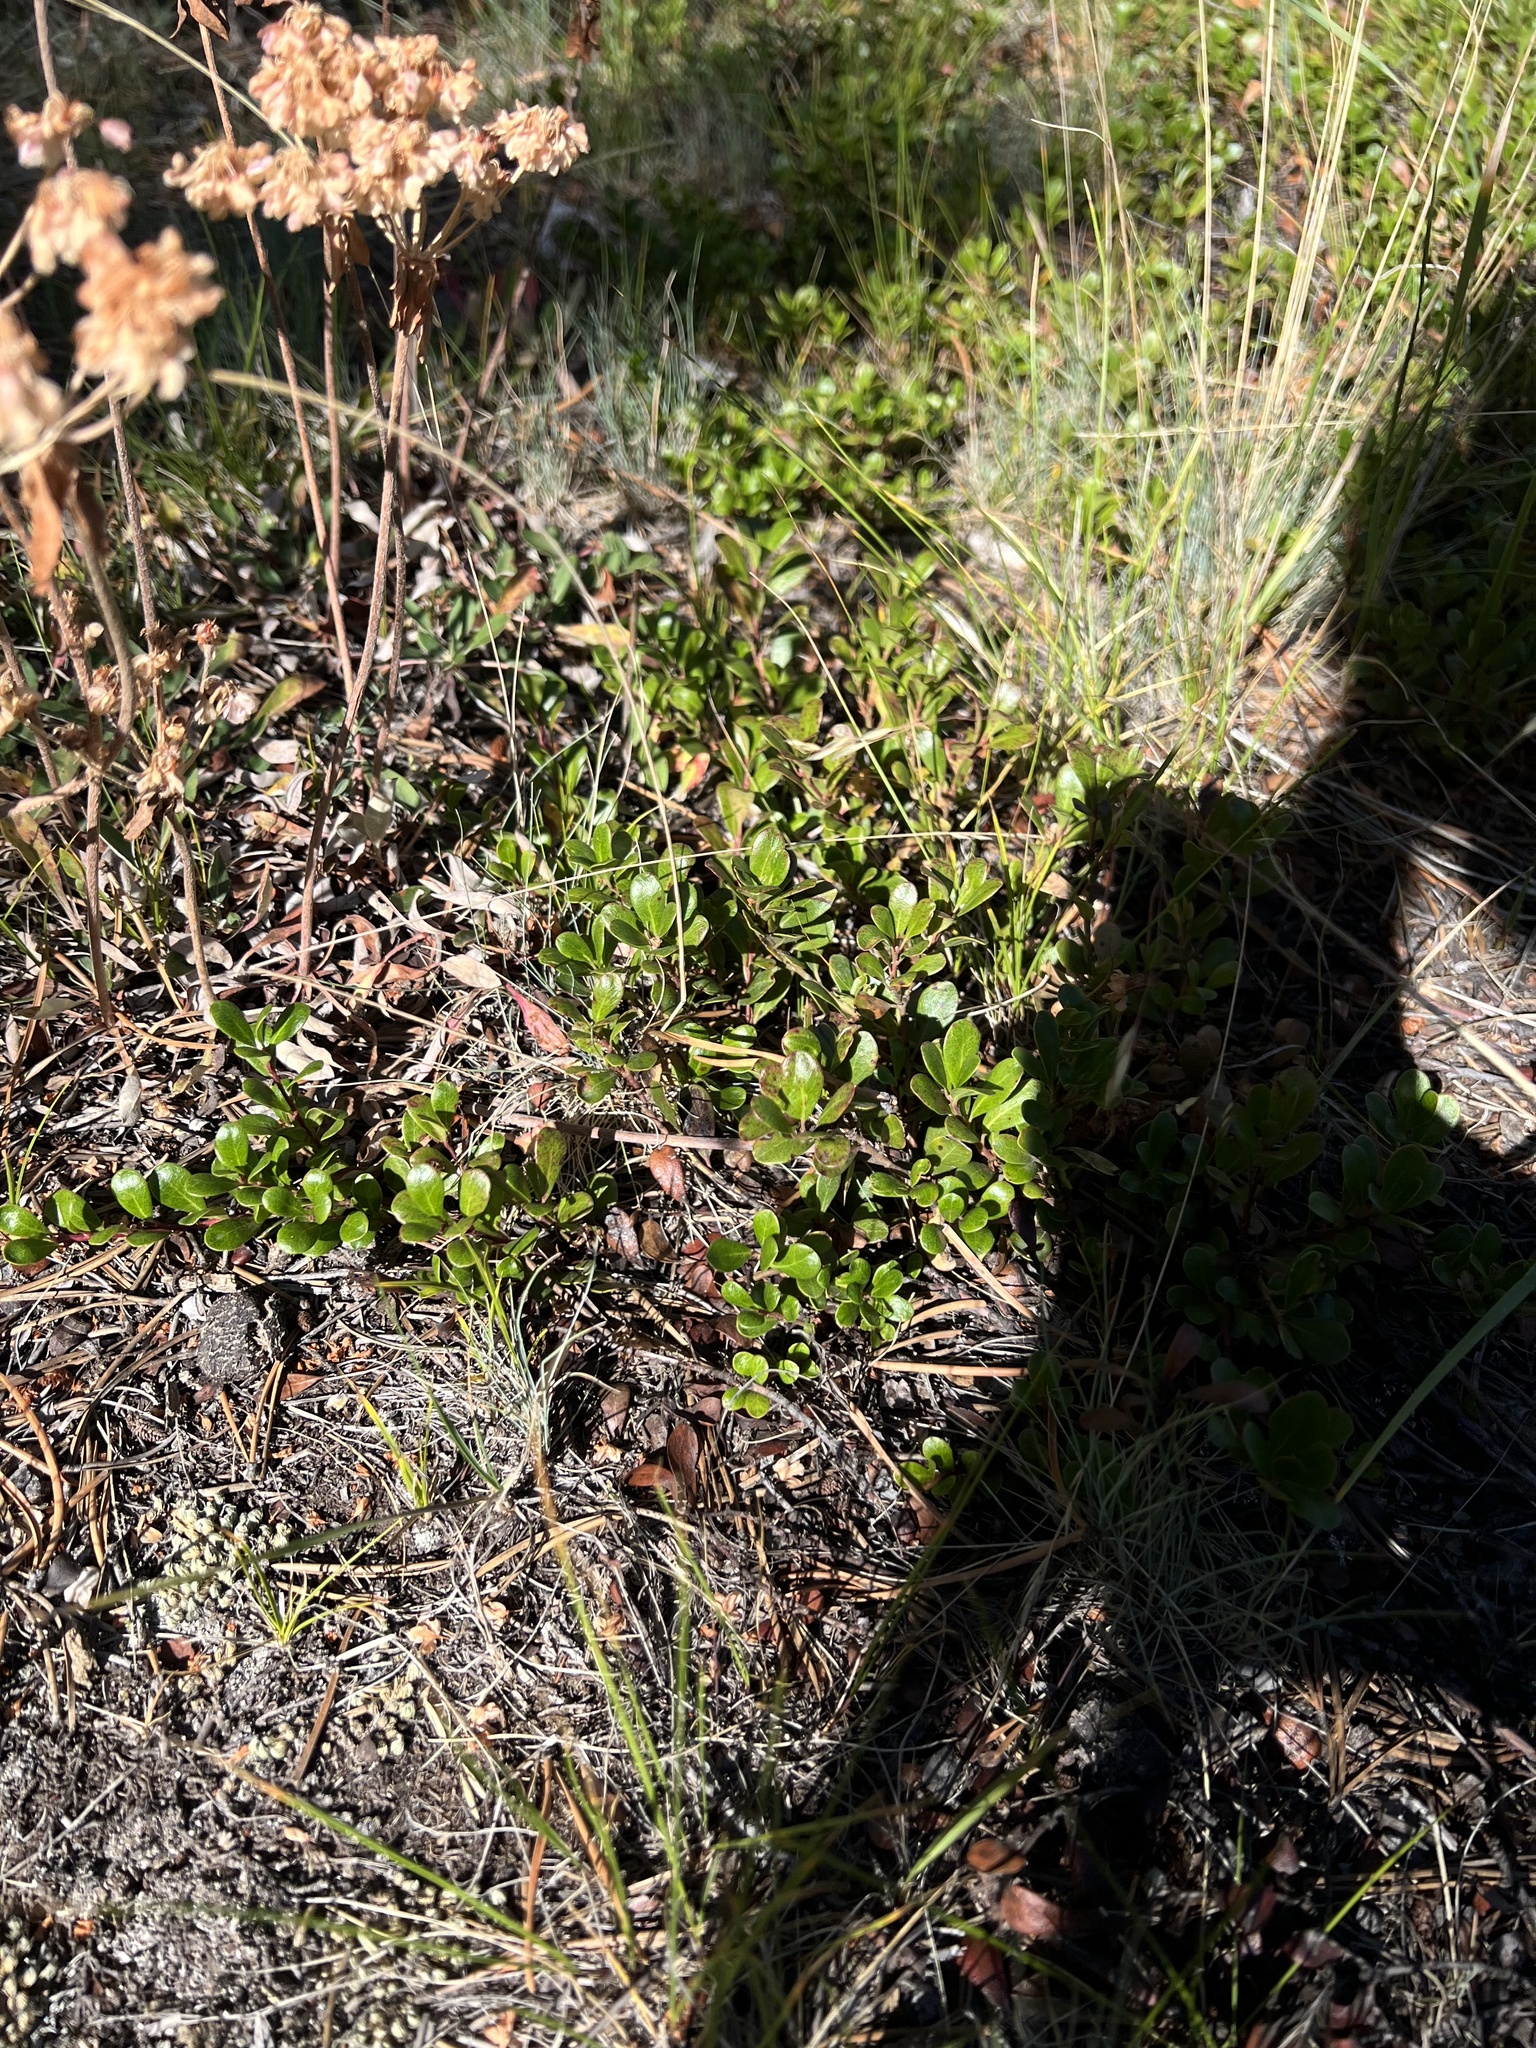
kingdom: Plantae
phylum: Tracheophyta
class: Magnoliopsida
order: Ericales
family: Ericaceae
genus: Arctostaphylos
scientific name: Arctostaphylos uva-ursi
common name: Bearberry
